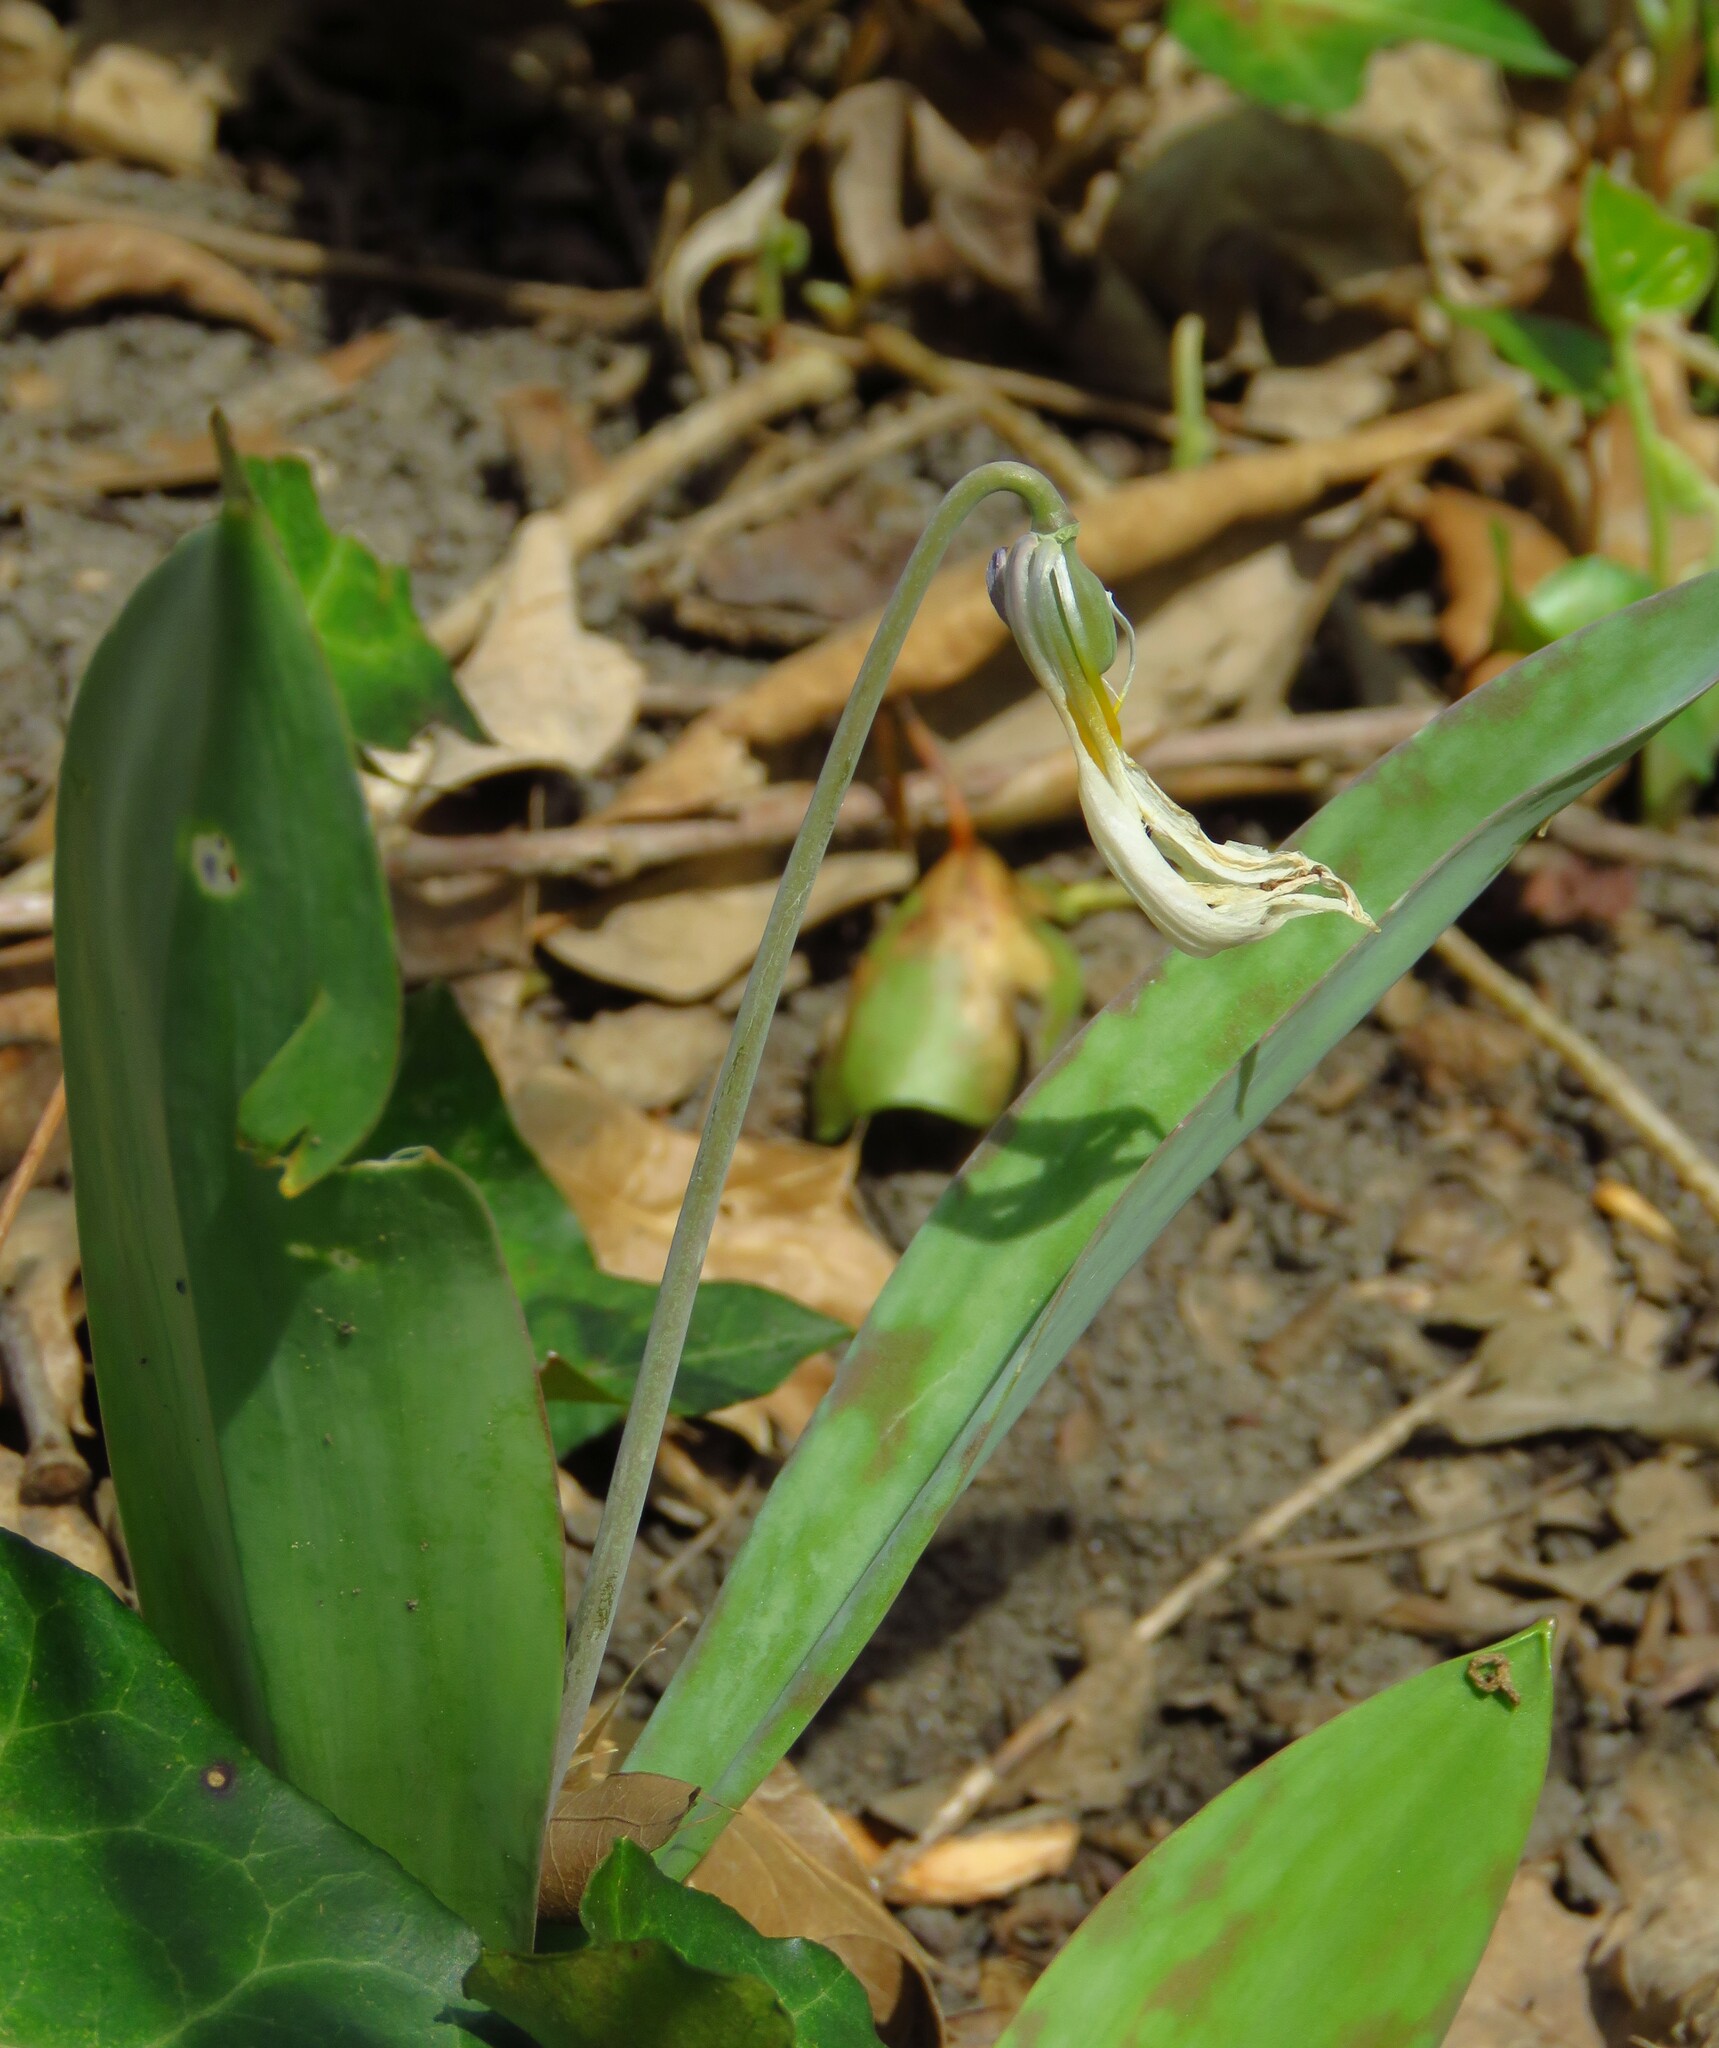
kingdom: Plantae
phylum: Tracheophyta
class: Liliopsida
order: Liliales
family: Liliaceae
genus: Erythronium
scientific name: Erythronium albidum
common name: White trout-lily
